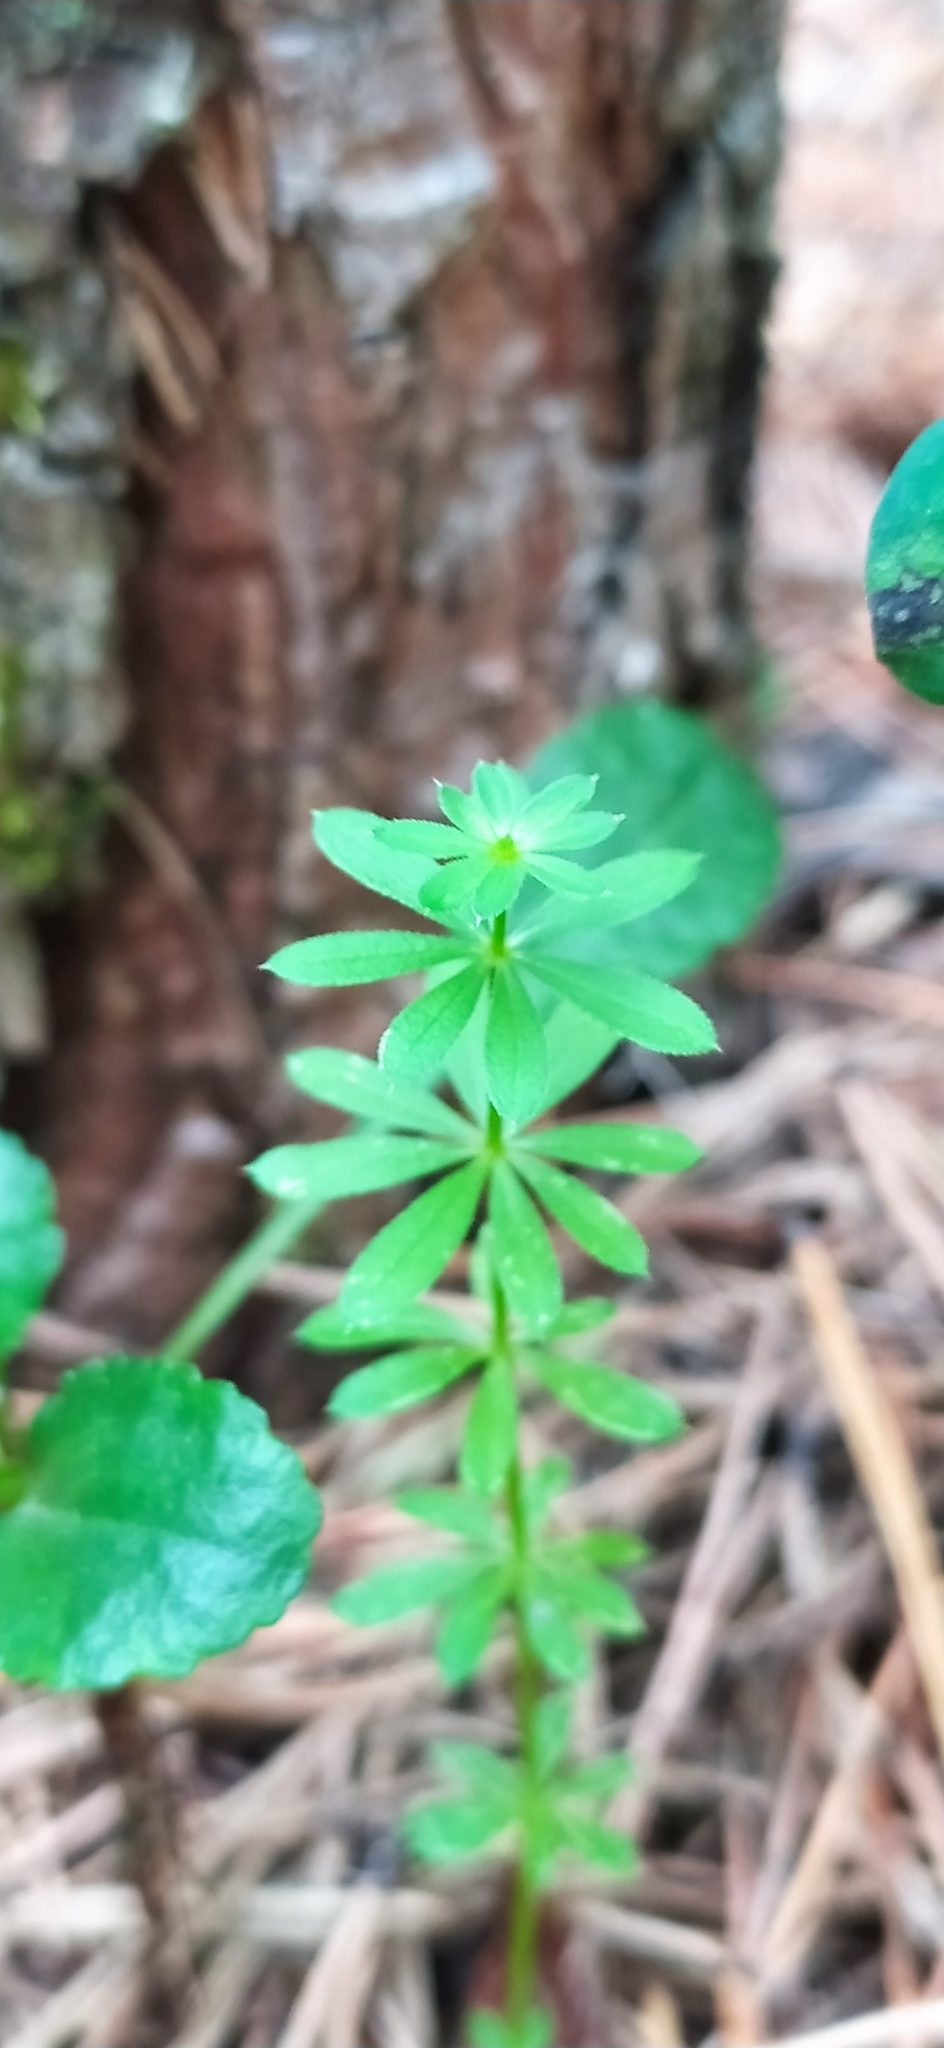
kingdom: Plantae
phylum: Tracheophyta
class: Magnoliopsida
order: Gentianales
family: Rubiaceae
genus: Galium
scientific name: Galium mollugo
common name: Hedge bedstraw
